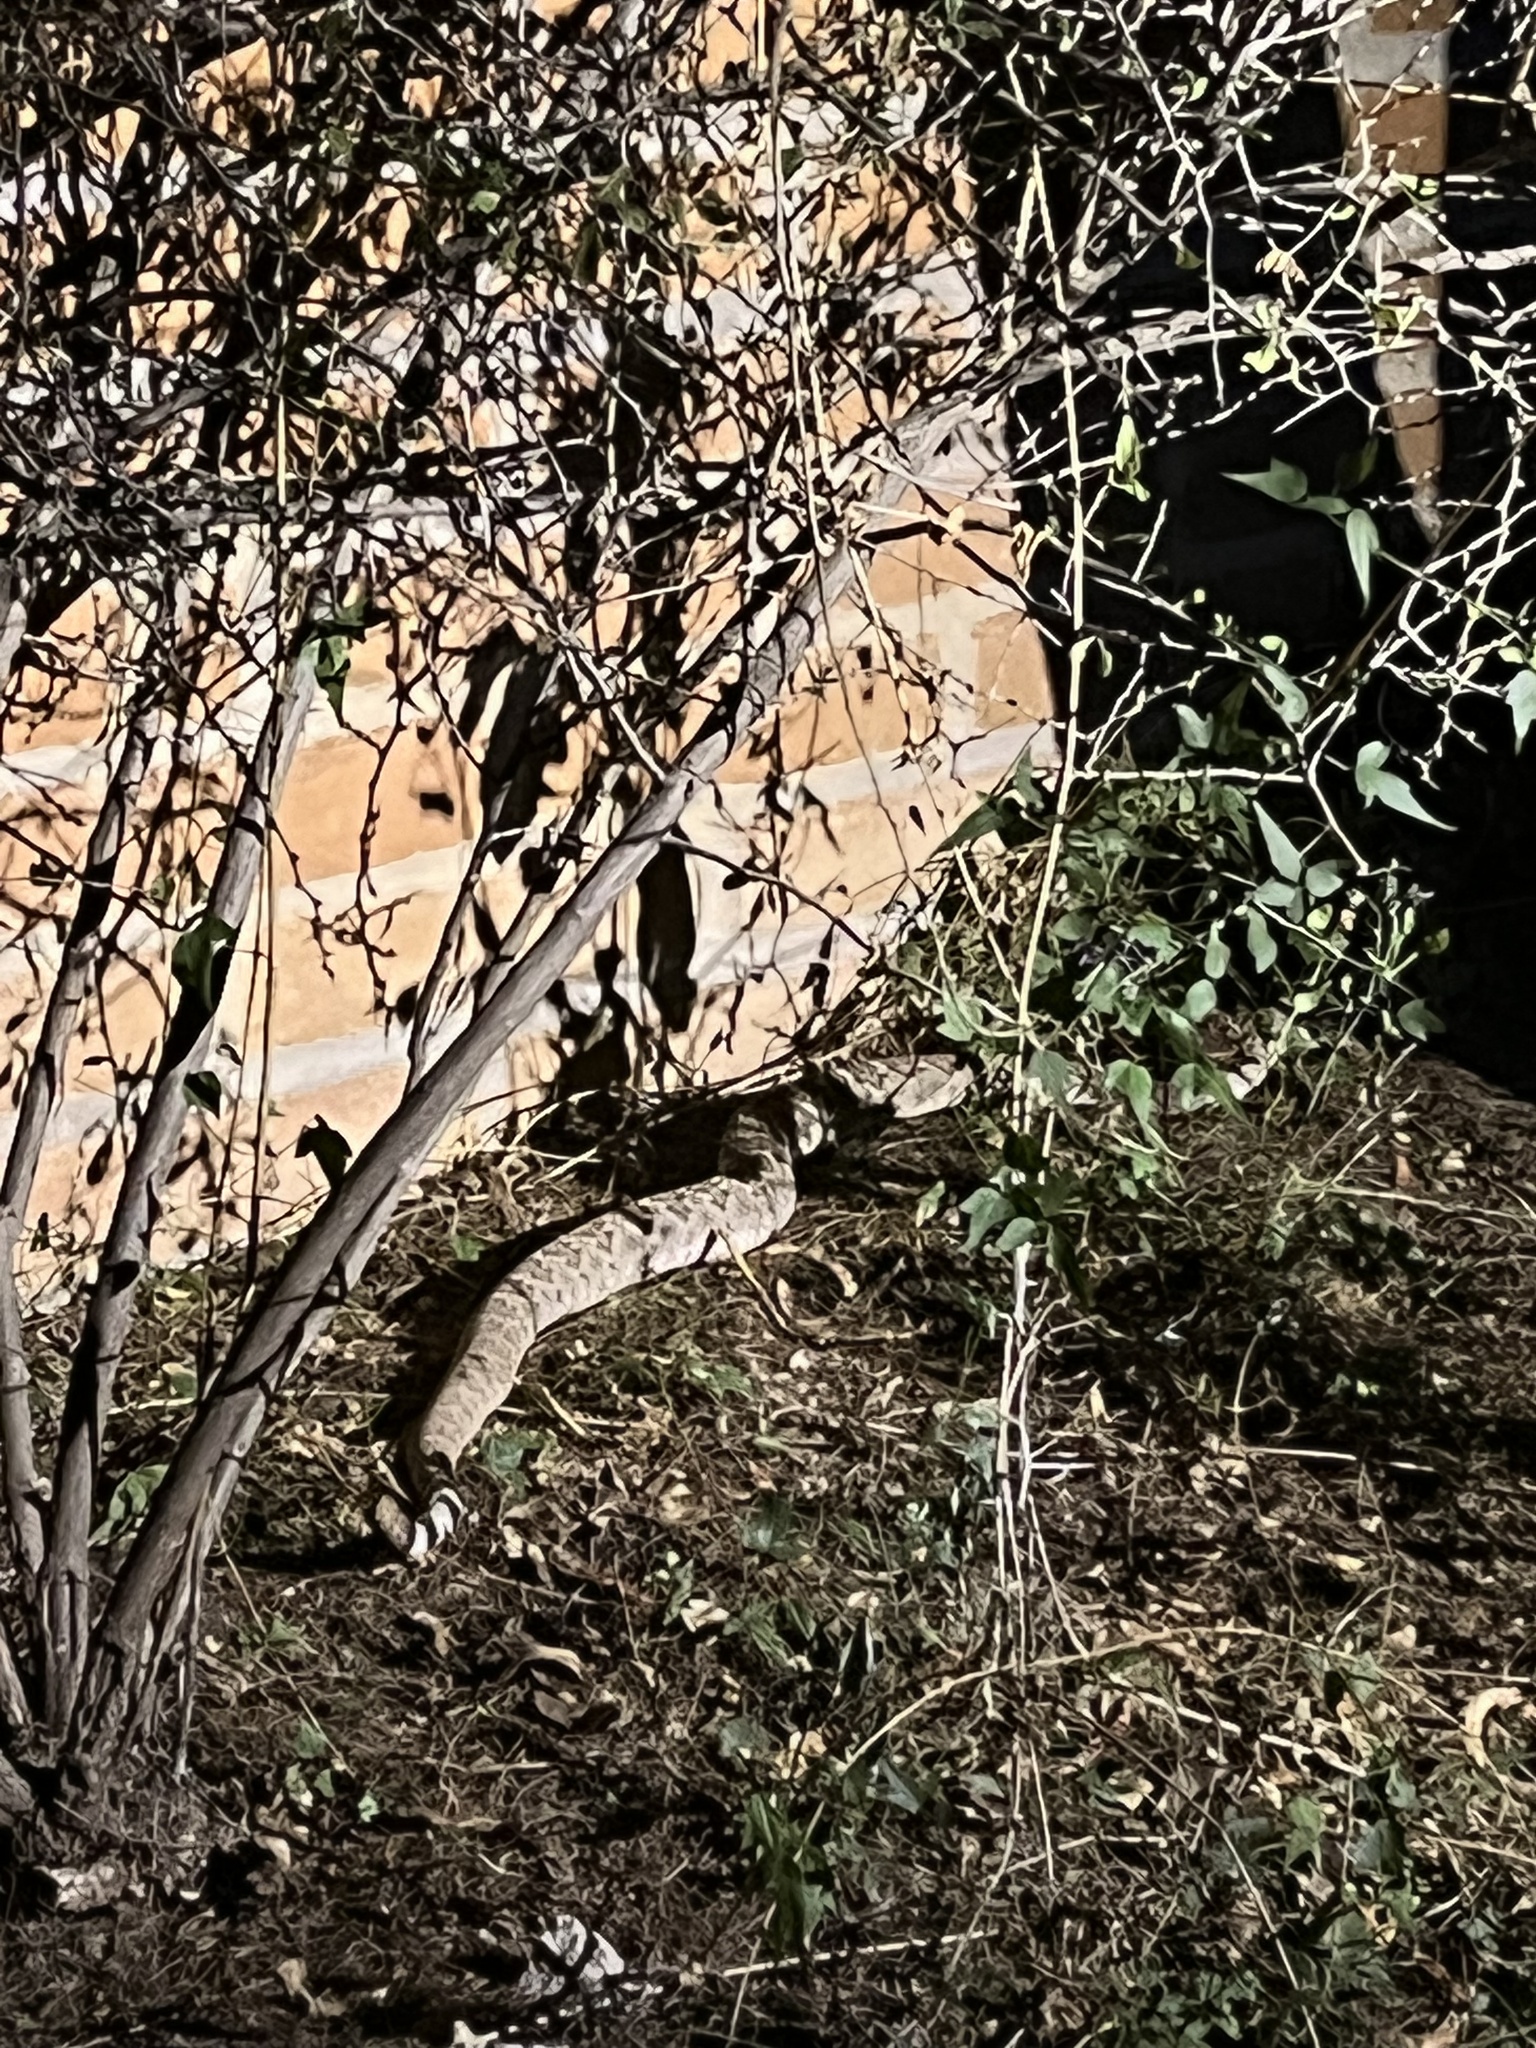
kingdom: Animalia
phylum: Chordata
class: Squamata
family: Viperidae
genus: Crotalus
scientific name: Crotalus atrox
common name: Western diamond-backed rattlesnake
